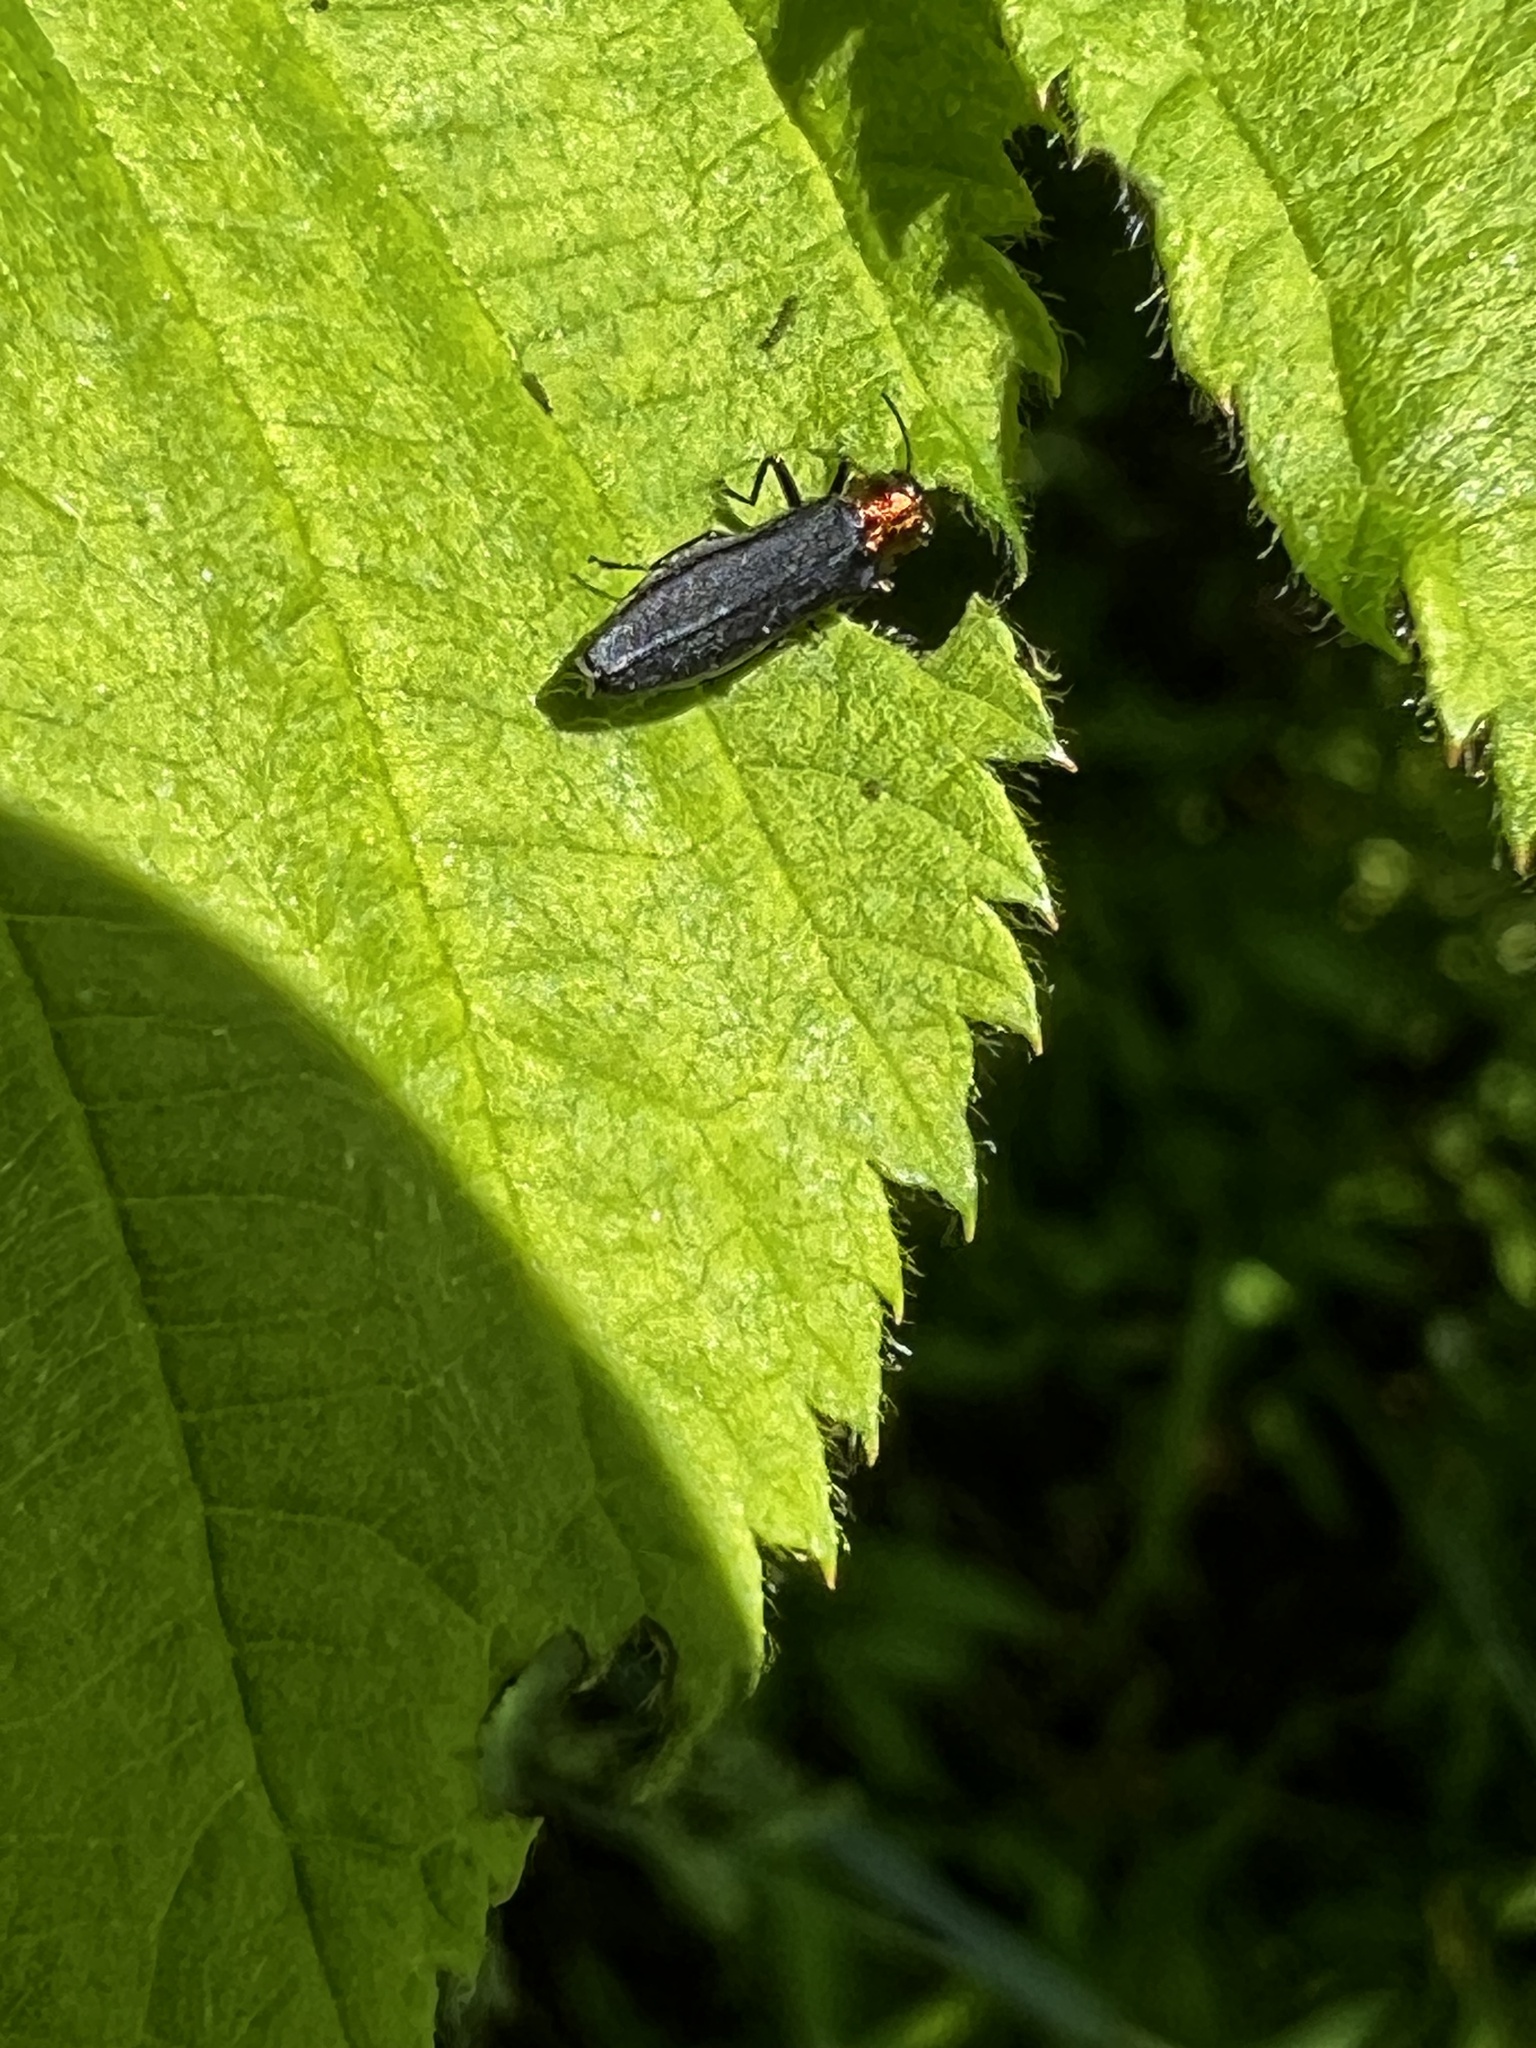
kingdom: Animalia
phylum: Arthropoda
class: Insecta
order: Coleoptera
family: Buprestidae
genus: Agrilus
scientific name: Agrilus ruficollis
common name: Red-necked cane borer beetle
